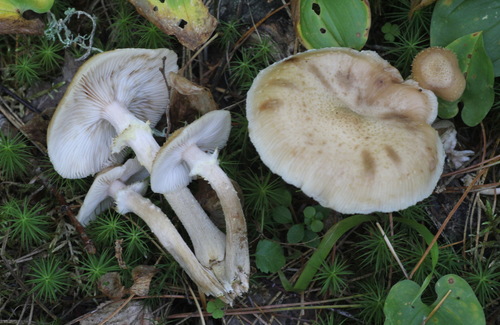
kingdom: Fungi
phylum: Basidiomycota
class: Agaricomycetes
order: Agaricales
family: Physalacriaceae
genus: Armillaria
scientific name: Armillaria cepistipes
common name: Mullet honey fungus
